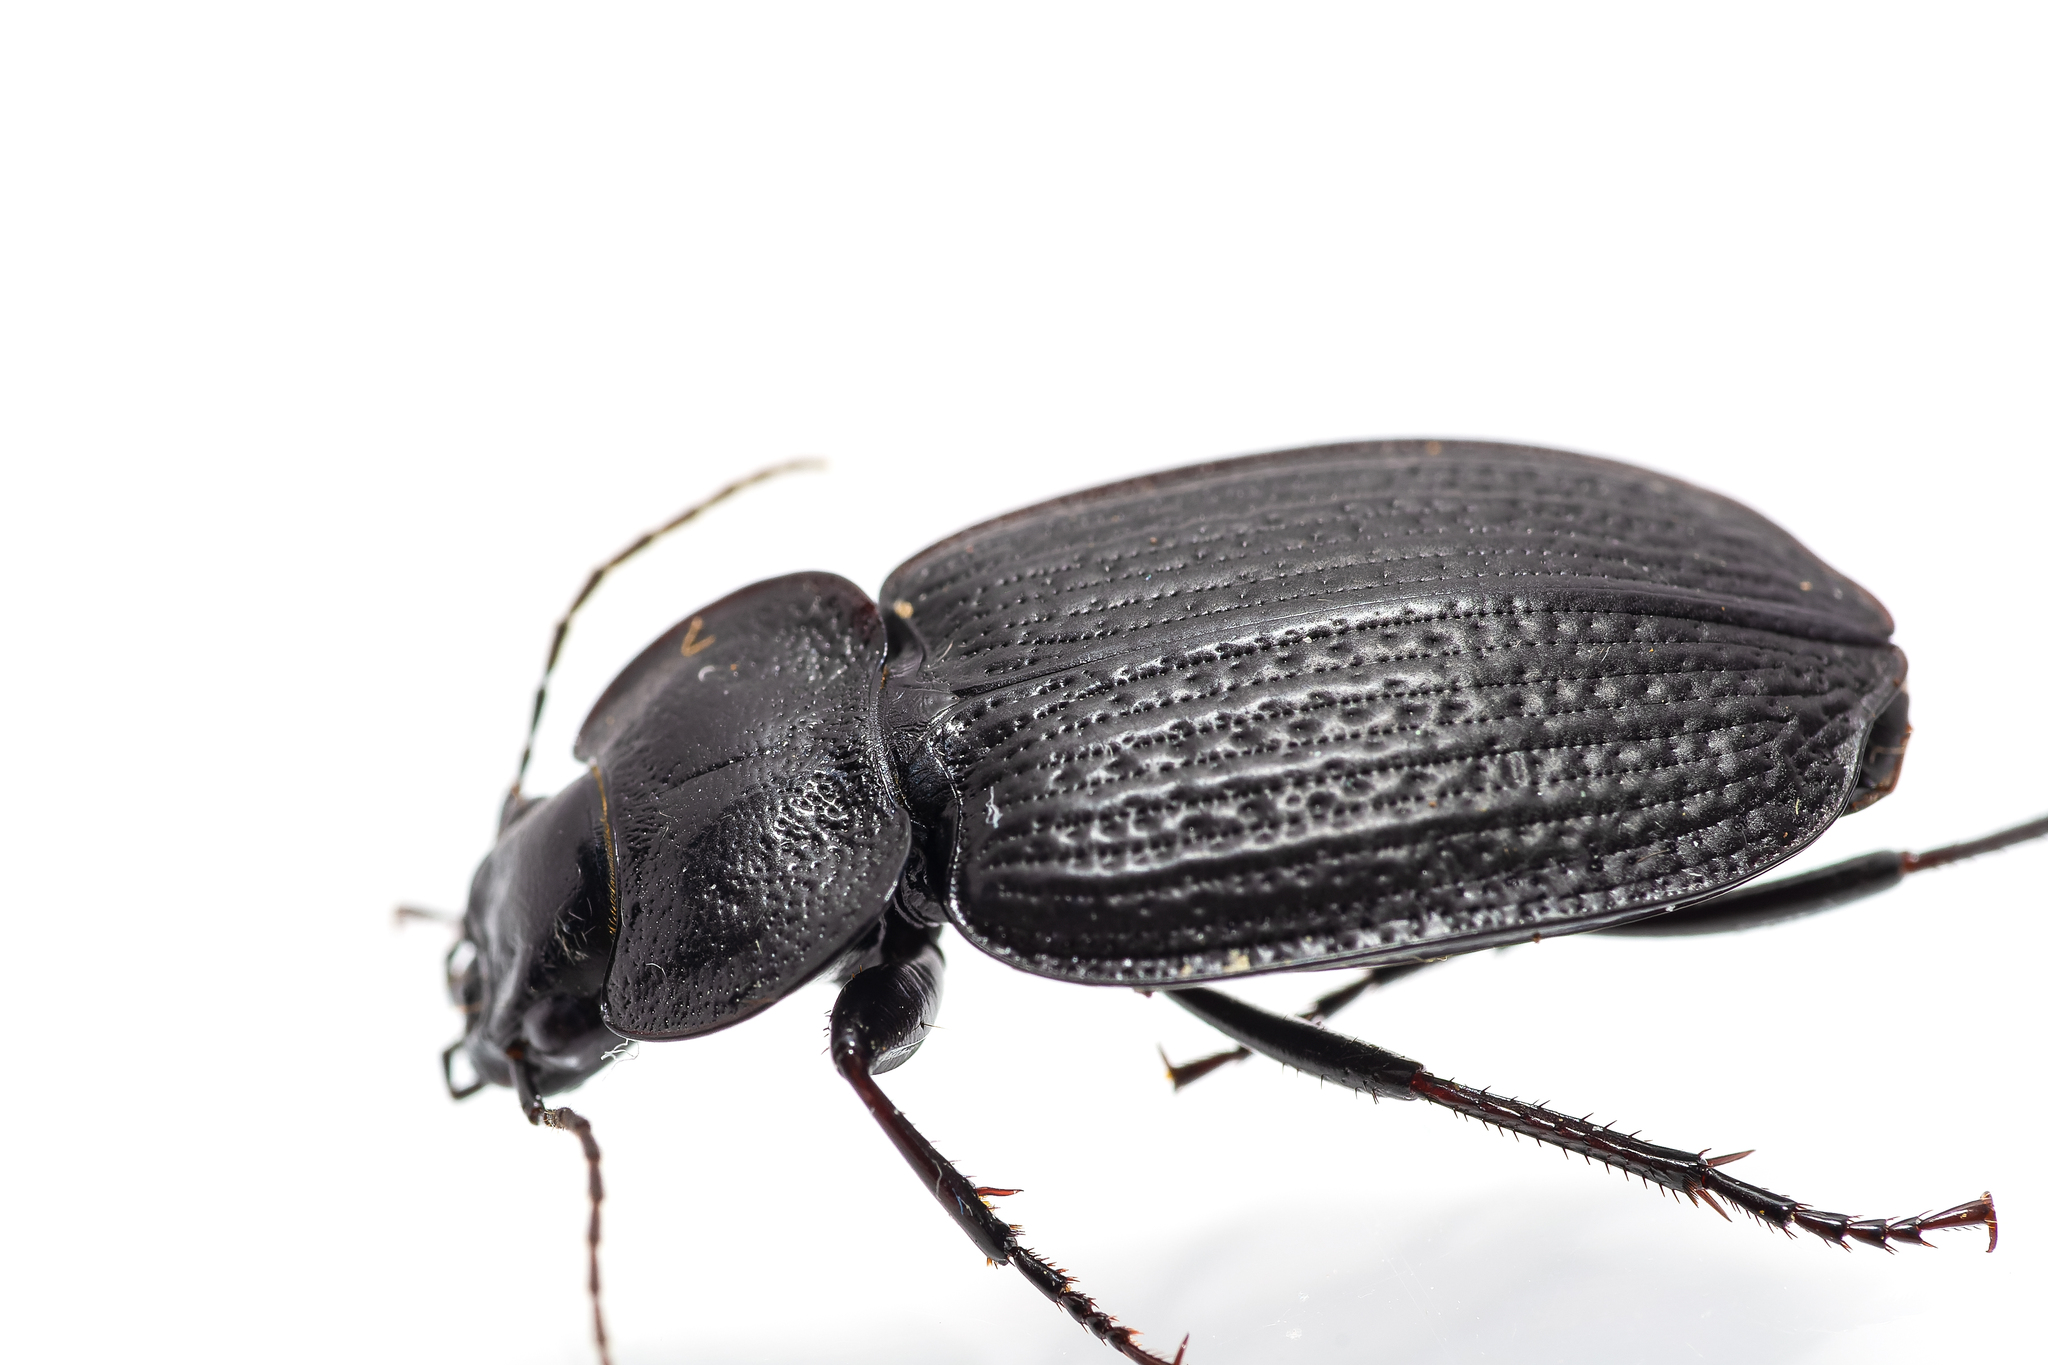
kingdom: Animalia
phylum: Arthropoda
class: Insecta
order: Coleoptera
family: Carabidae
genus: Licinus
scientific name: Licinus punctatulus
